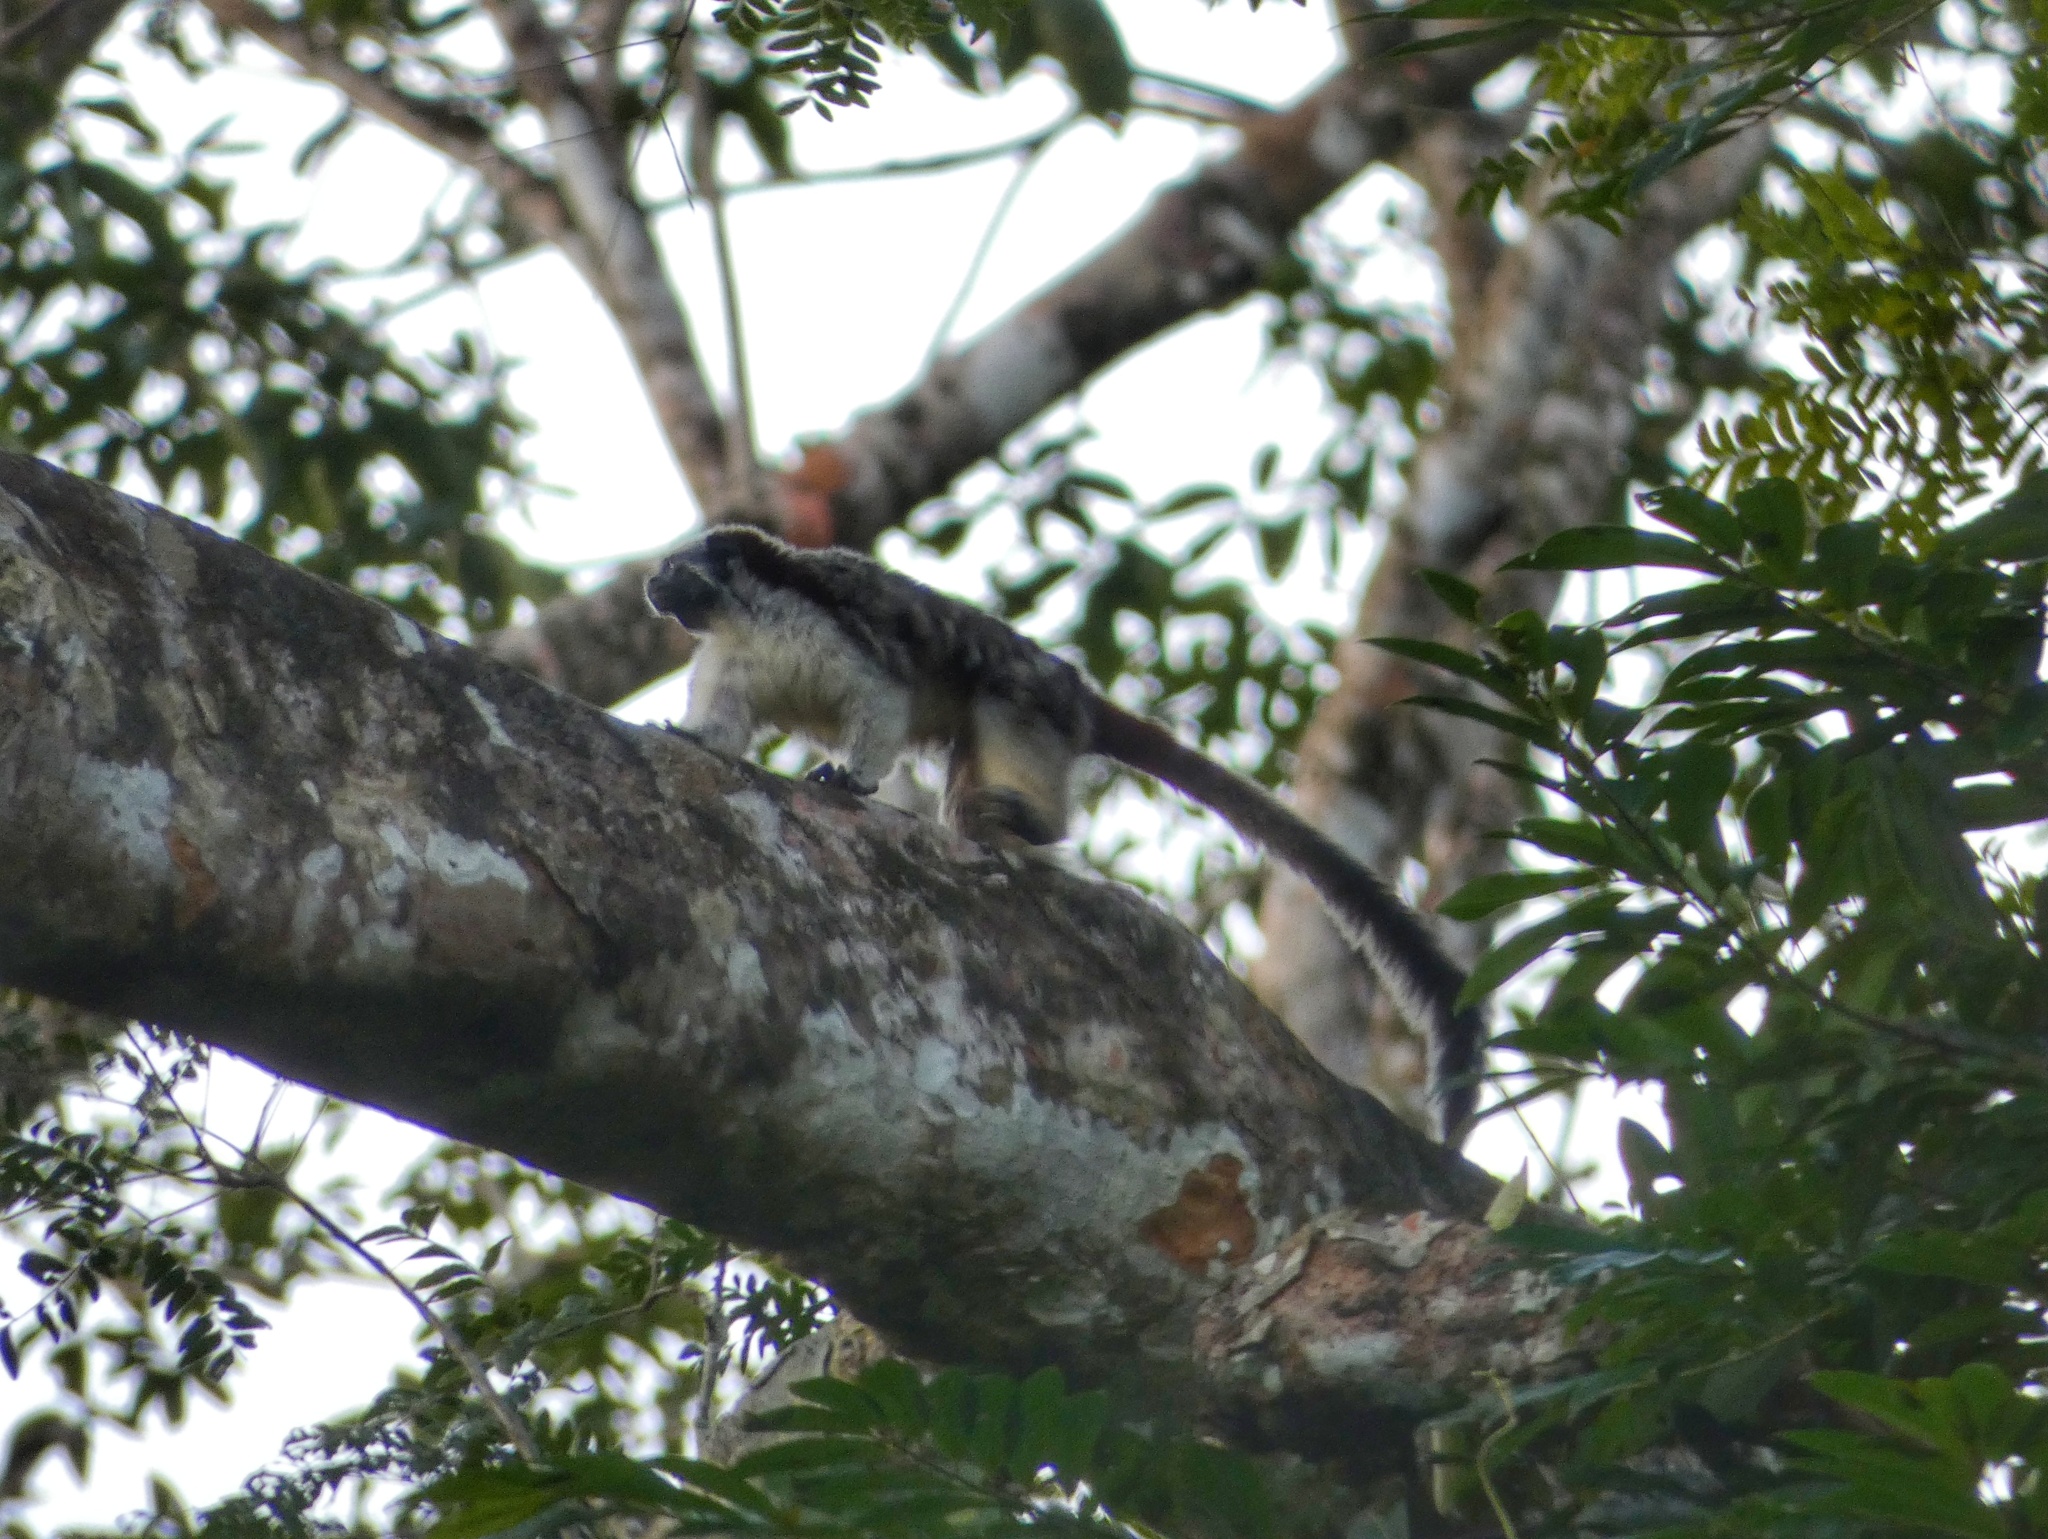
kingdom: Animalia
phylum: Chordata
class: Mammalia
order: Primates
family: Callitrichidae
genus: Saguinus
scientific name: Saguinus geoffroyi
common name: Geoffroy s tamarin
